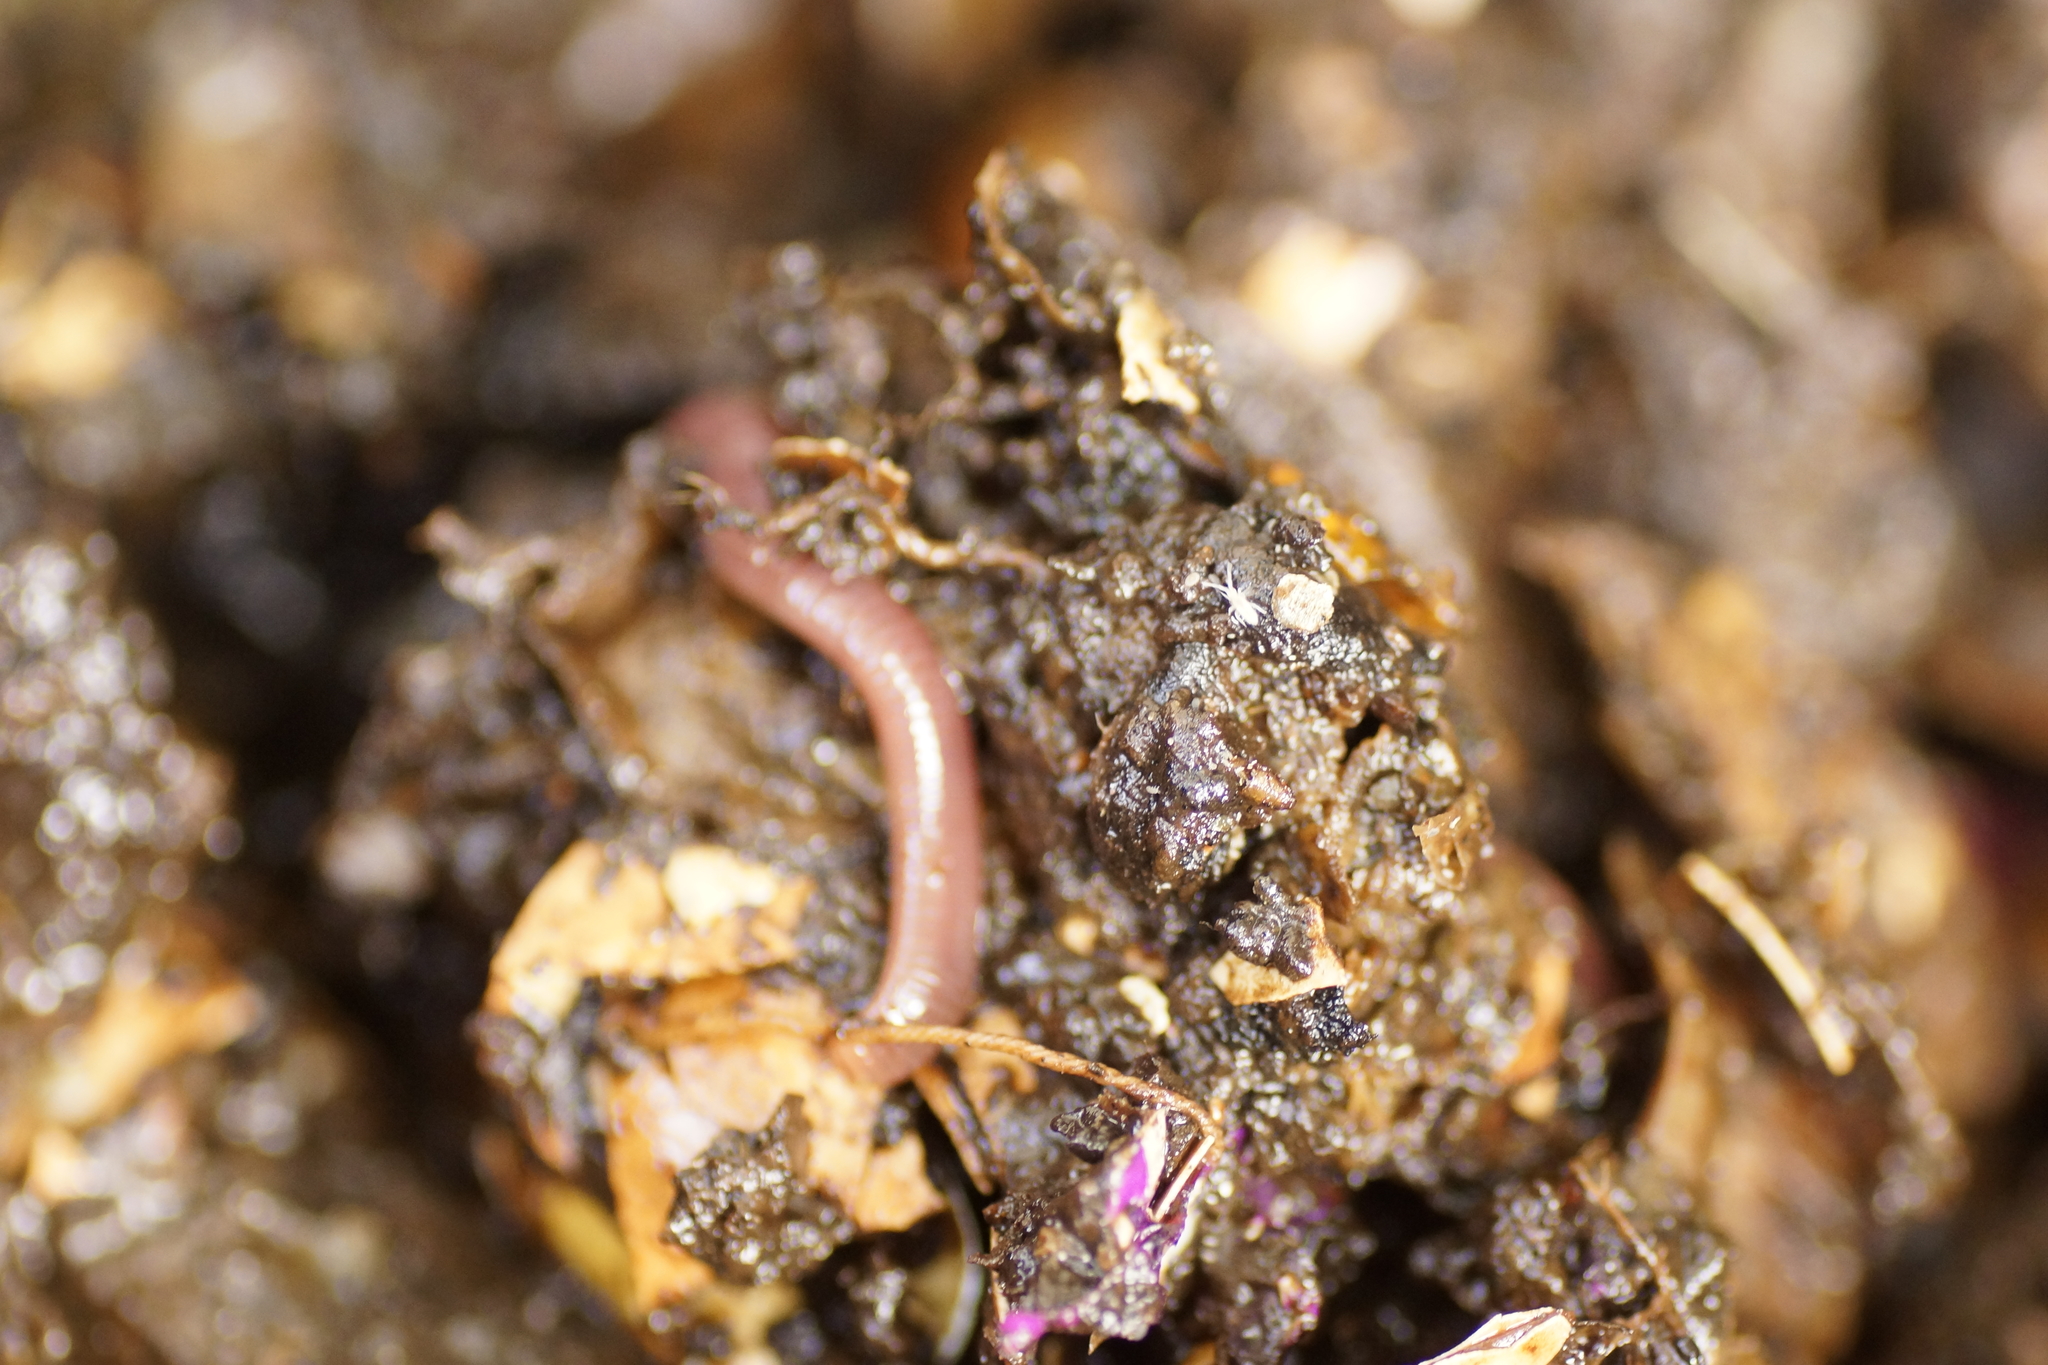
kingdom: Animalia
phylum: Annelida
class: Clitellata
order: Crassiclitellata
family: Lumbricidae
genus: Lumbricus
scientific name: Lumbricus terrestris
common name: Common earthworm
